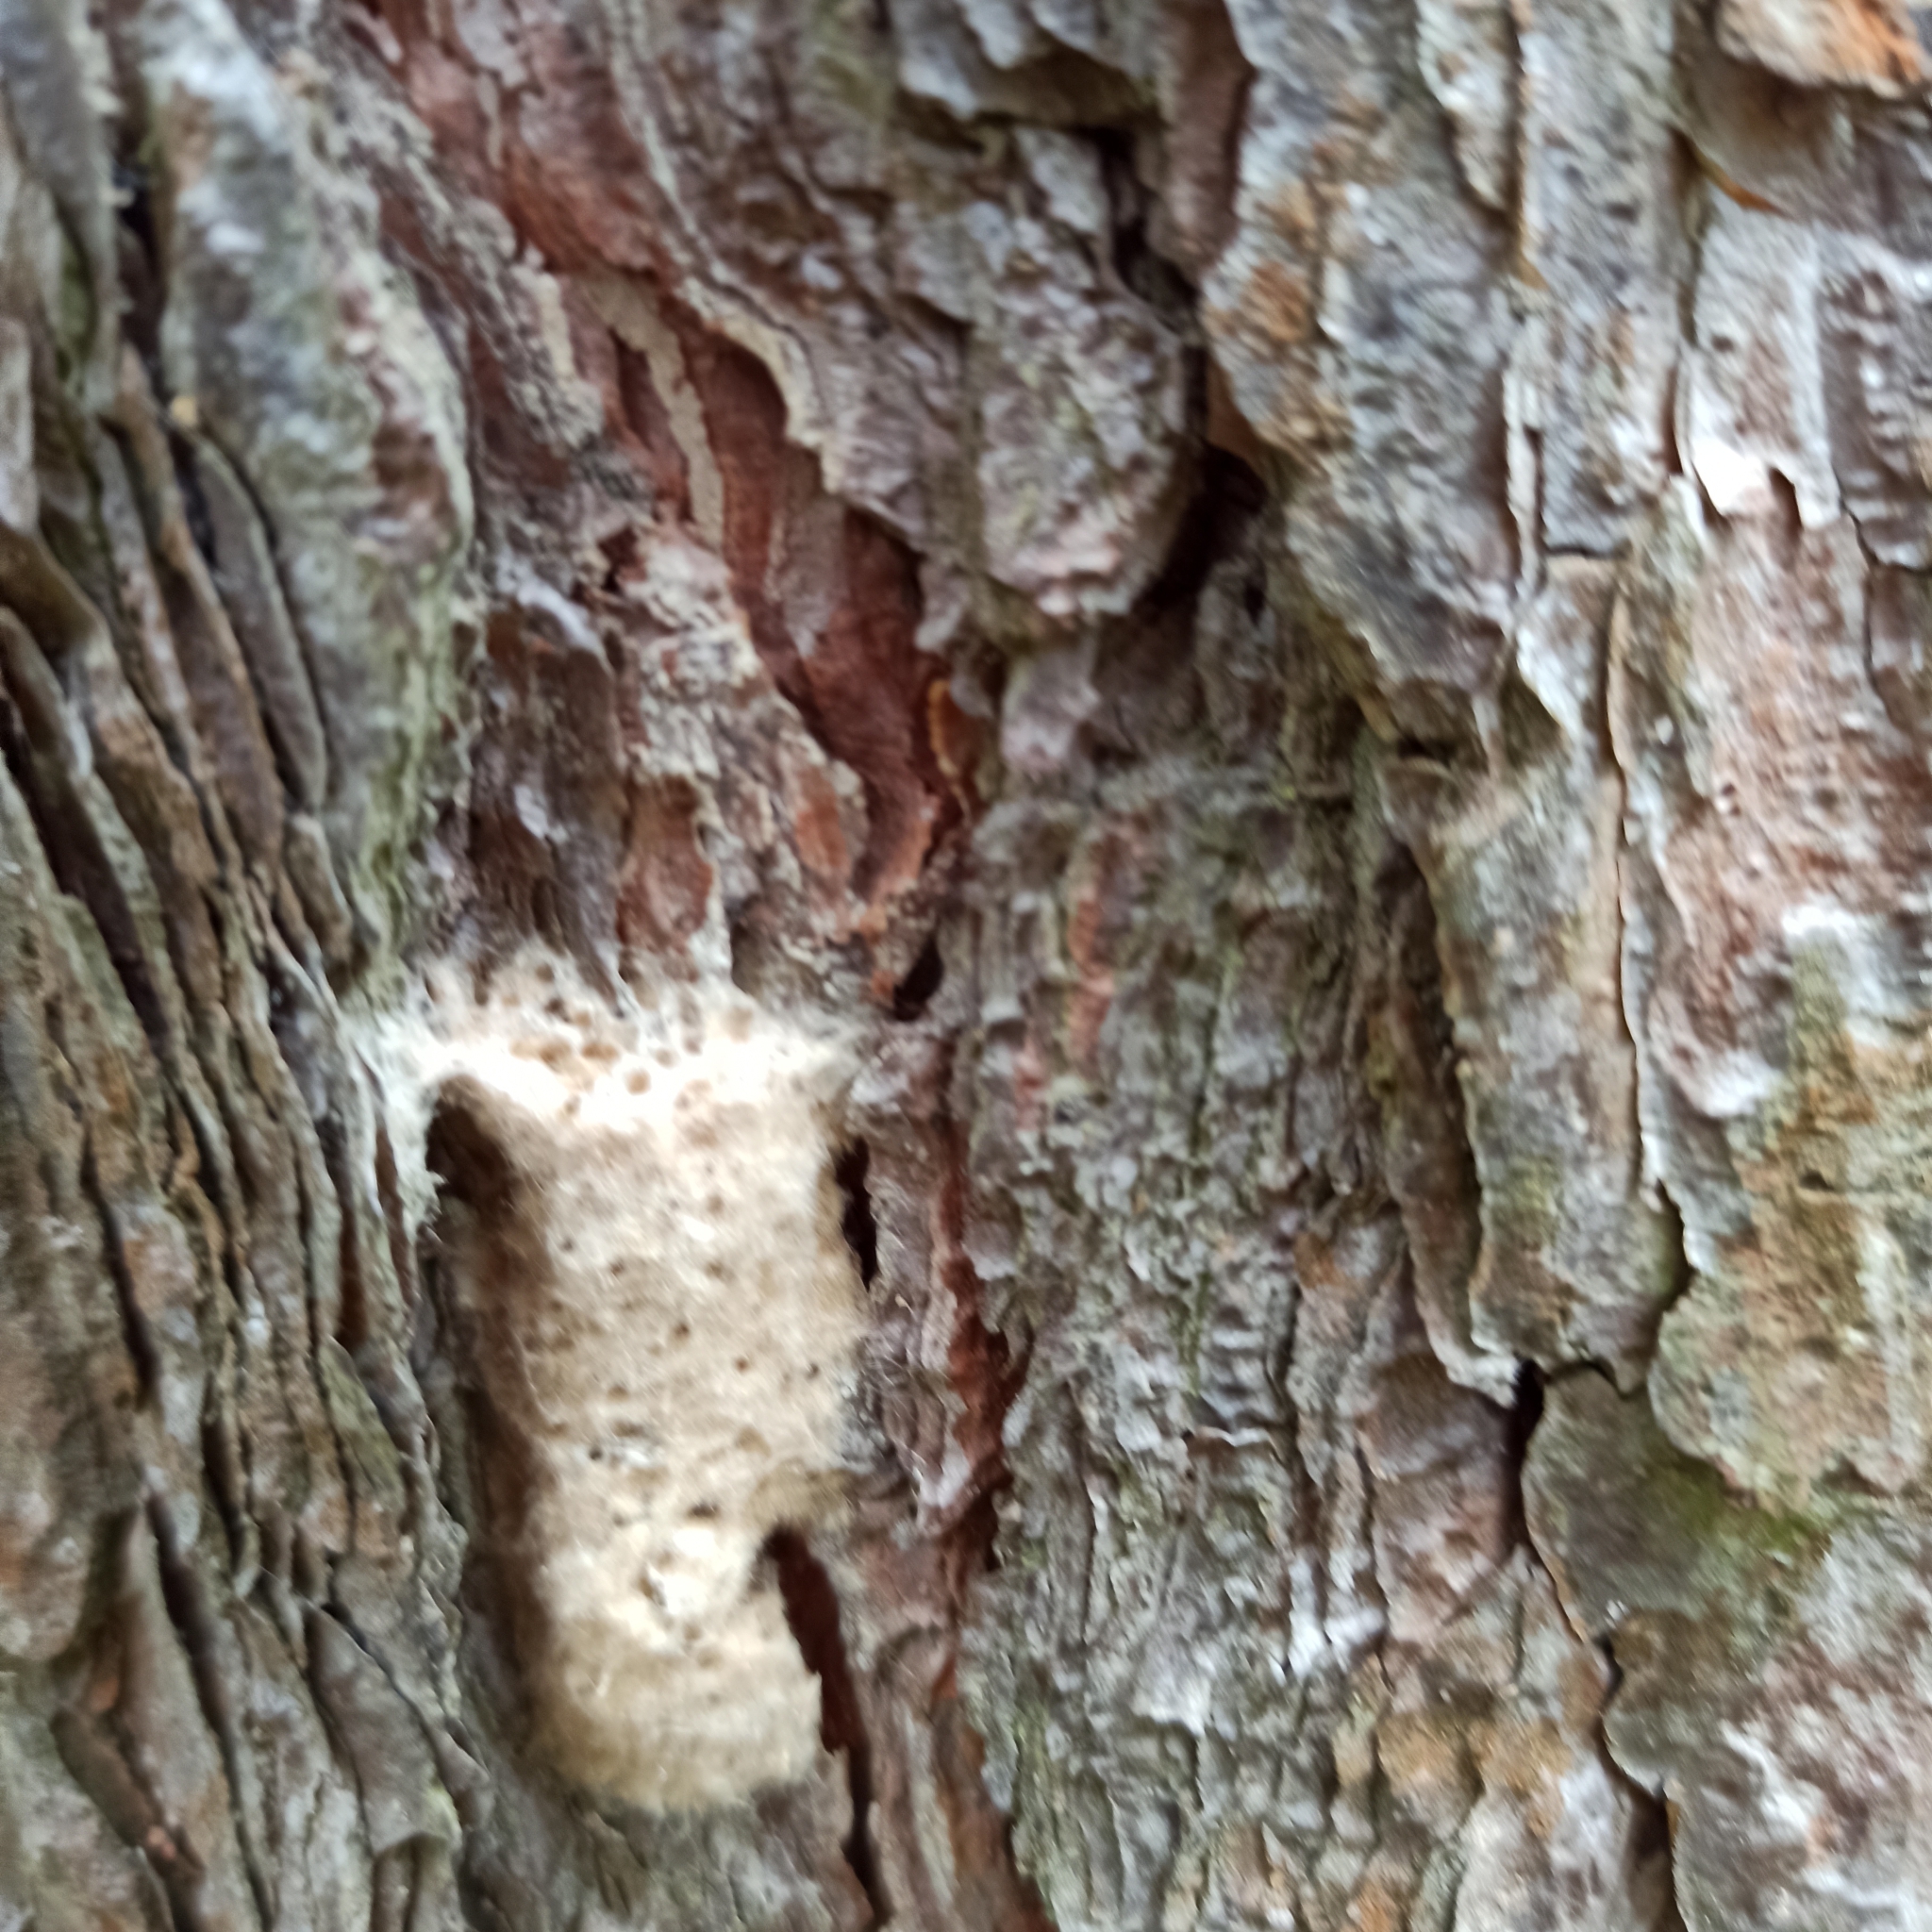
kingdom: Animalia
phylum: Arthropoda
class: Insecta
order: Lepidoptera
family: Erebidae
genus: Lymantria
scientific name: Lymantria dispar
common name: Gypsy moth
